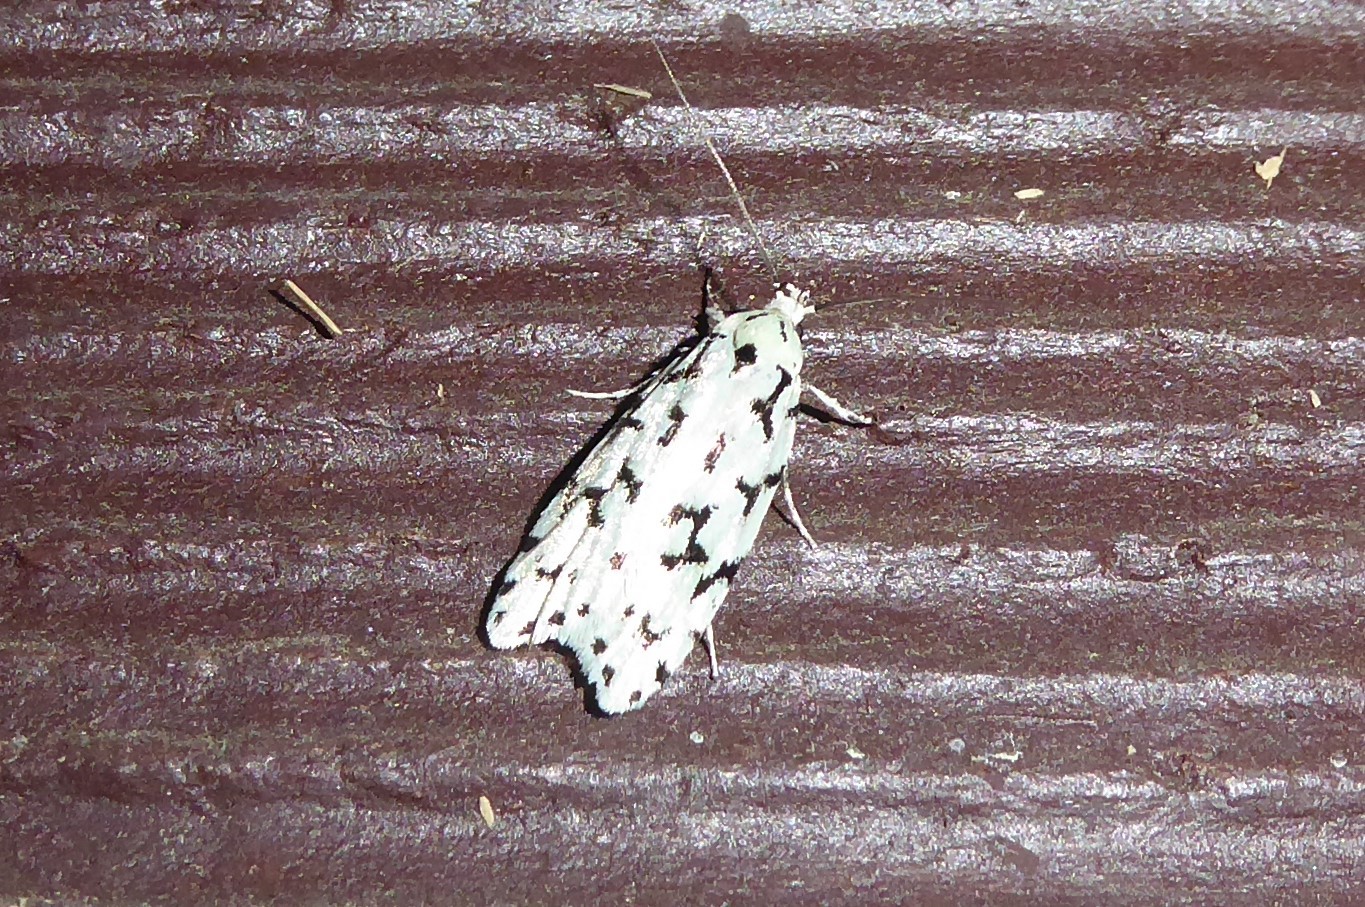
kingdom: Animalia
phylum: Arthropoda
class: Insecta
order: Lepidoptera
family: Oecophoridae
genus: Izatha
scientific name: Izatha huttoni
